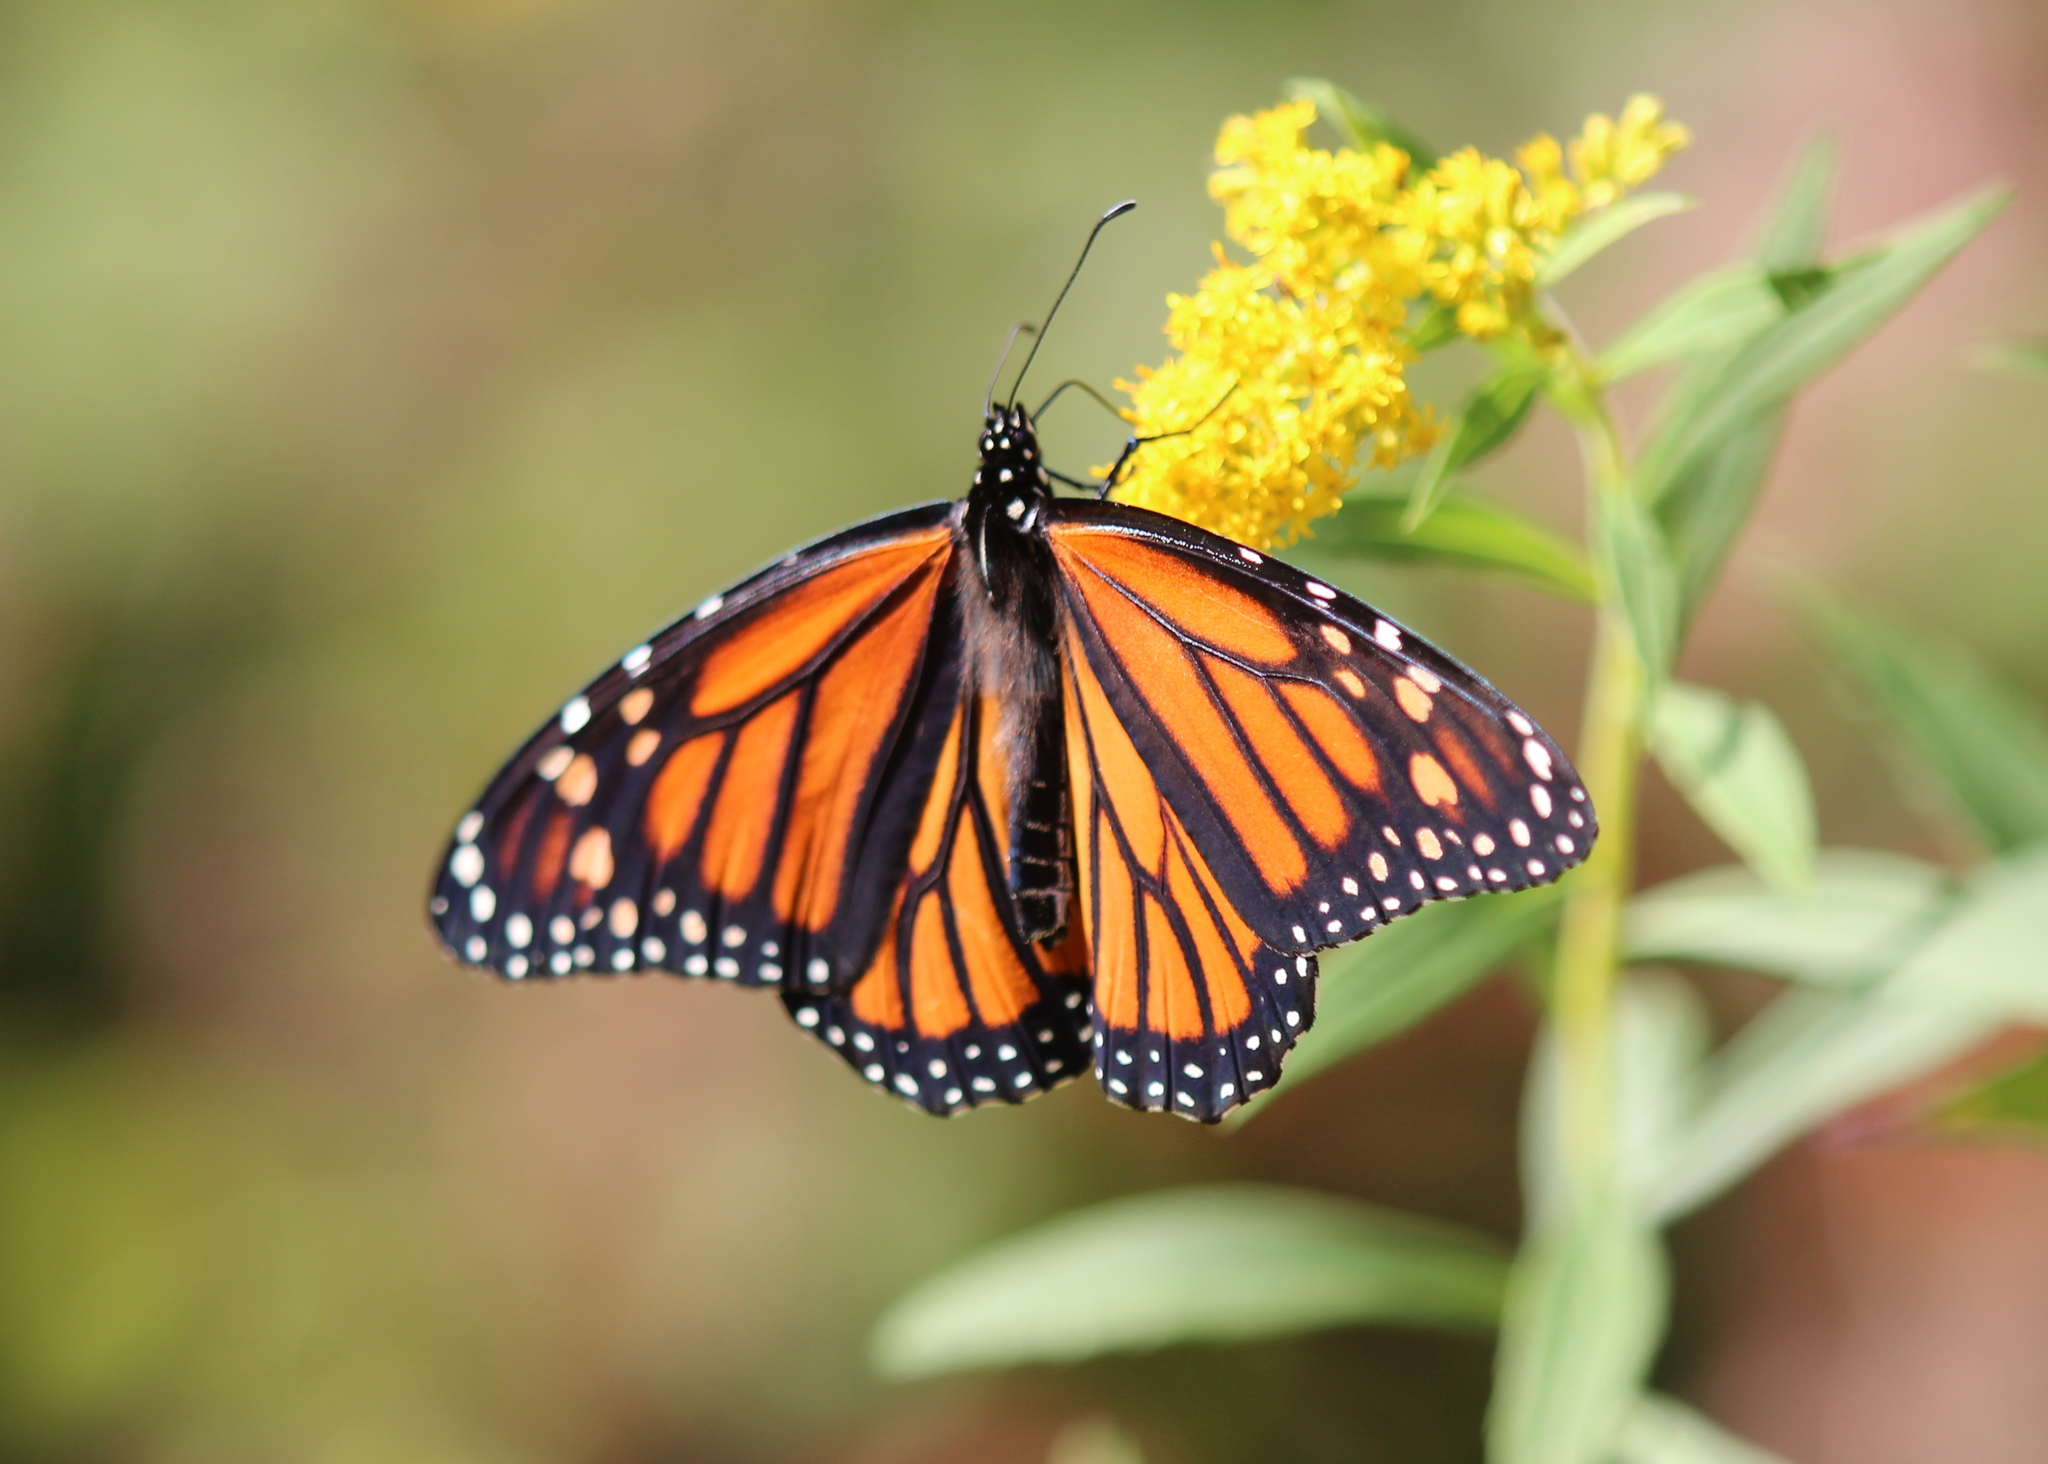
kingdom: Animalia
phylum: Arthropoda
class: Insecta
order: Lepidoptera
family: Nymphalidae
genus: Danaus
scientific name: Danaus plexippus
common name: Monarch
